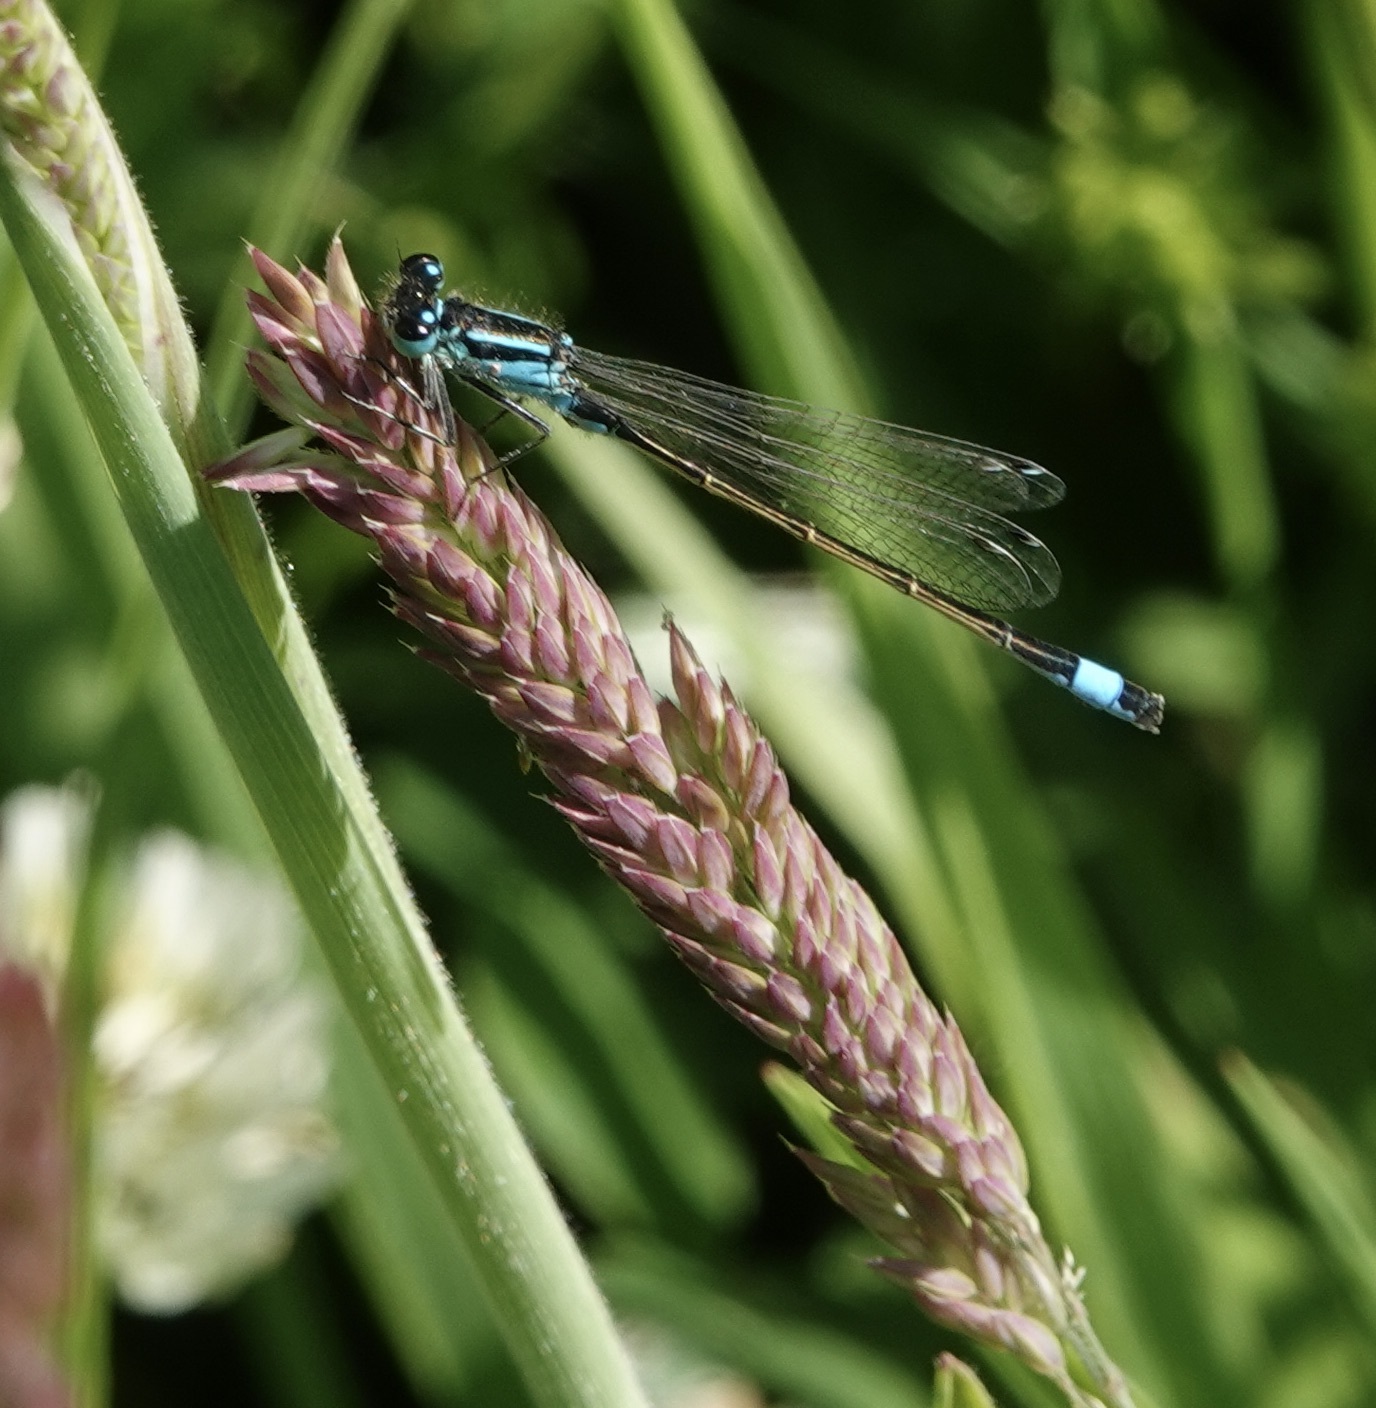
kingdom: Animalia
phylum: Arthropoda
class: Insecta
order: Odonata
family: Coenagrionidae
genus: Enallagma
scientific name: Enallagma cyathigerum
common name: Common blue damselfly
